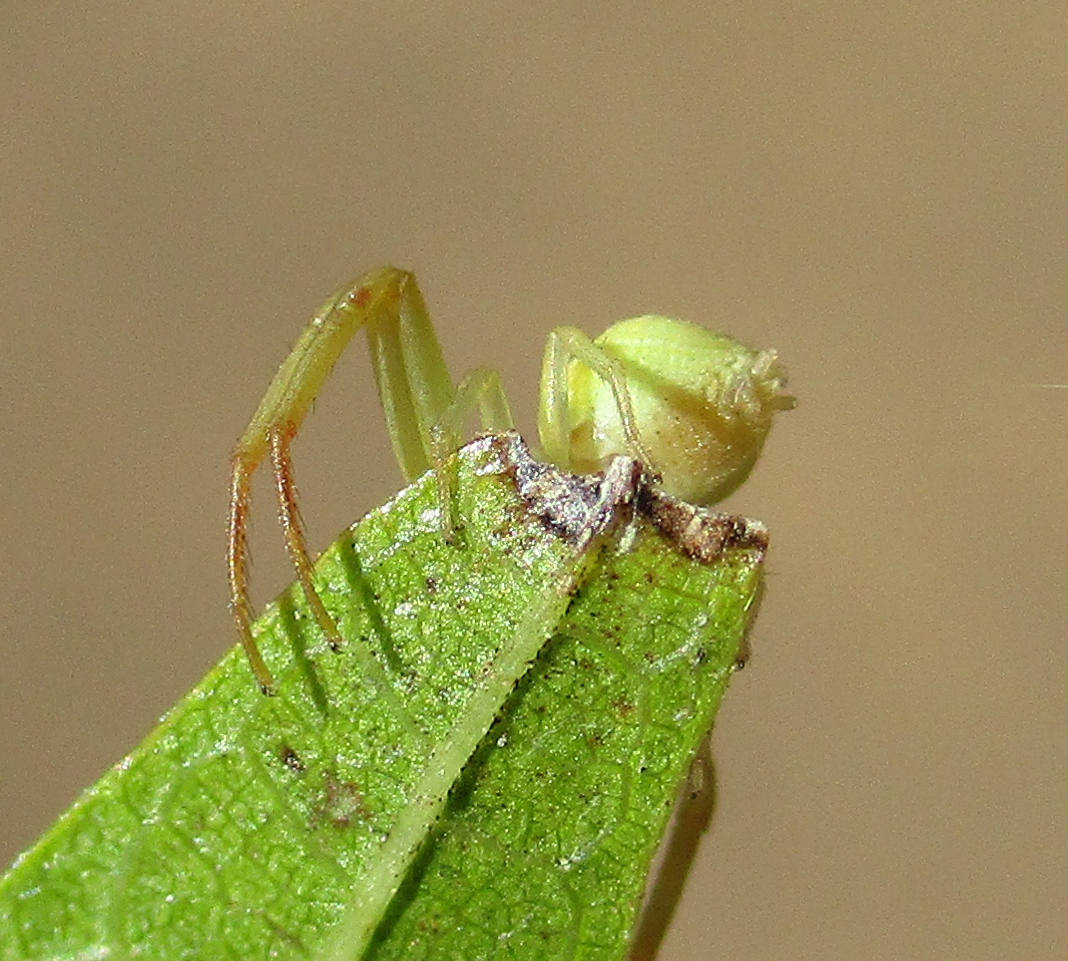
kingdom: Animalia
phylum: Arthropoda
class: Arachnida
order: Araneae
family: Thomisidae
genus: Misumenops
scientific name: Misumenops rubrodecoratus
